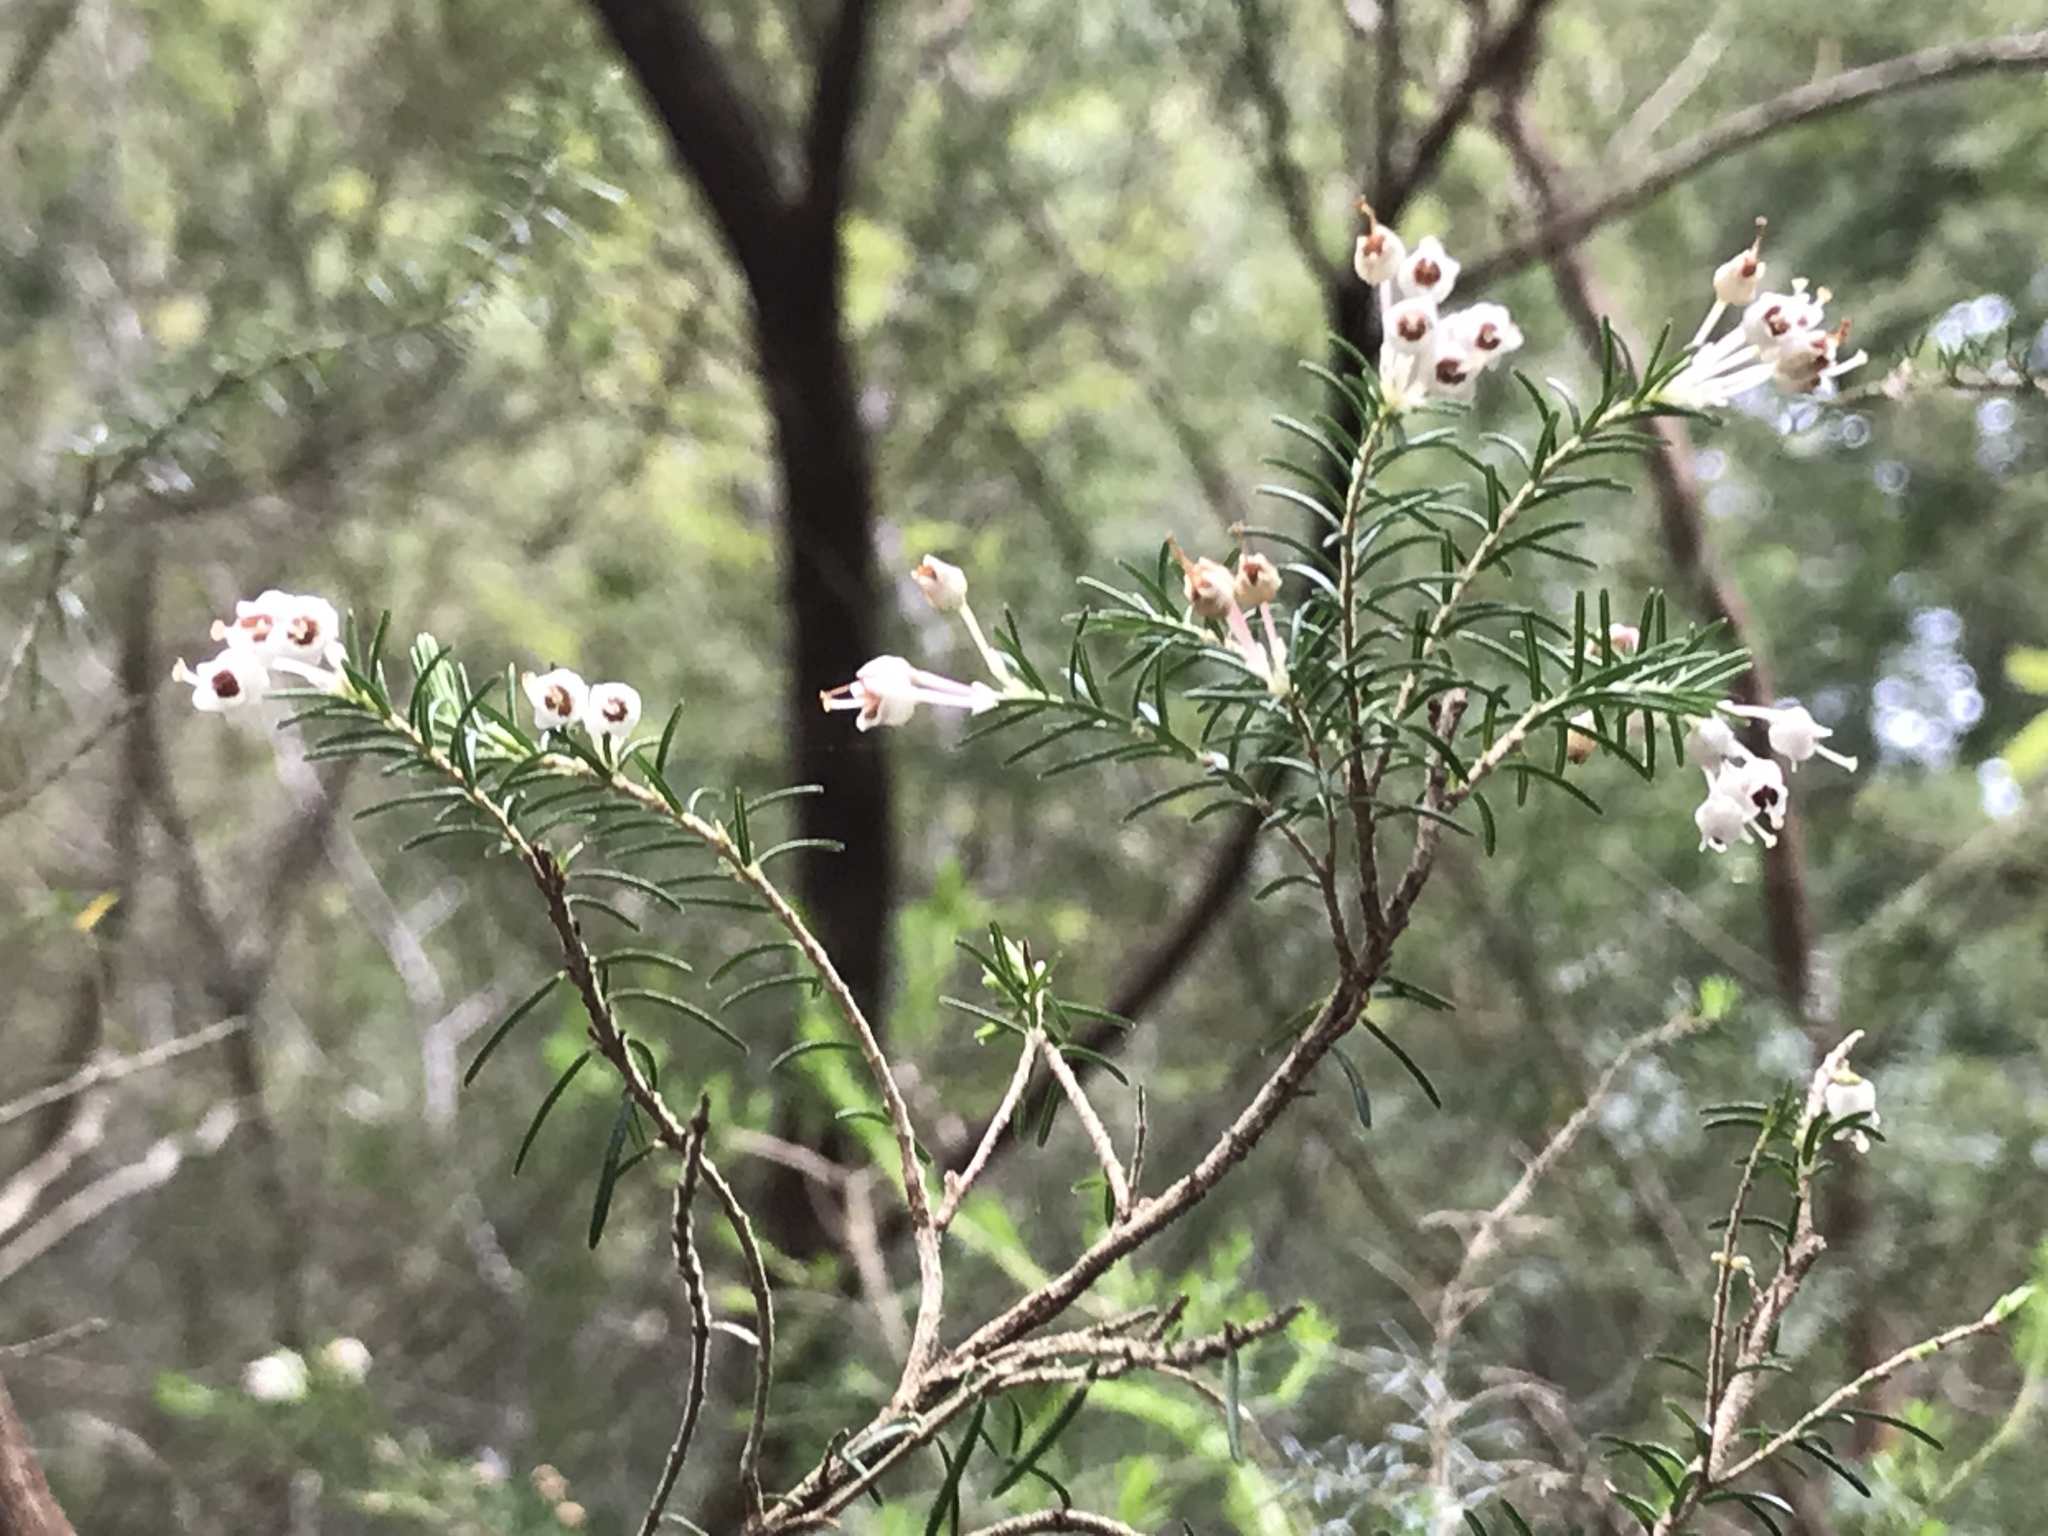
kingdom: Plantae
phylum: Tracheophyta
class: Magnoliopsida
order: Ericales
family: Ericaceae
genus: Erica
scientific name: Erica arborea
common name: Tree heath
